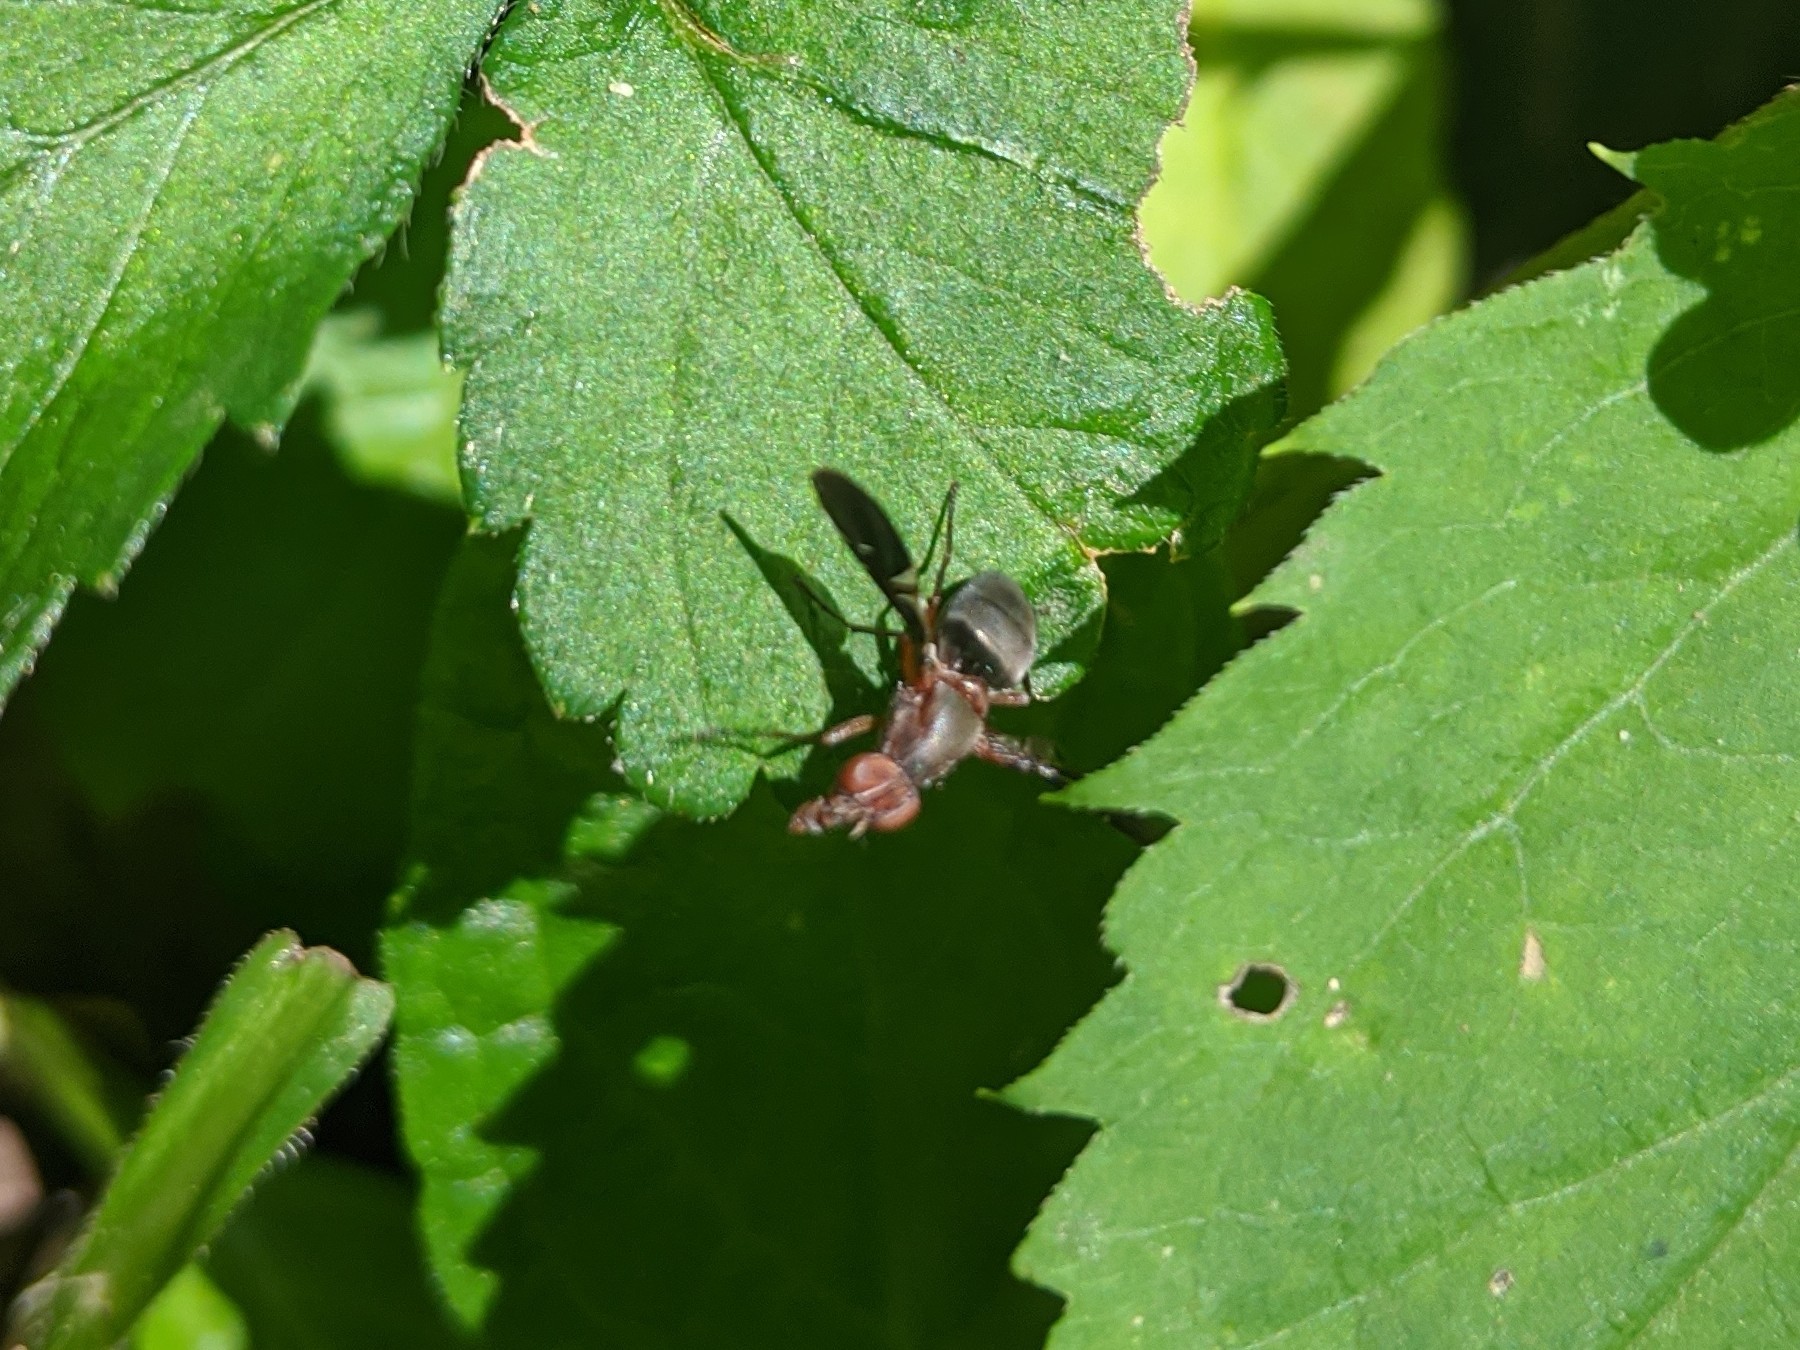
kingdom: Animalia
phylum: Arthropoda
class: Insecta
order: Diptera
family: Ulidiidae
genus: Delphinia
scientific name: Delphinia picta
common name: Common picture-winged fly
